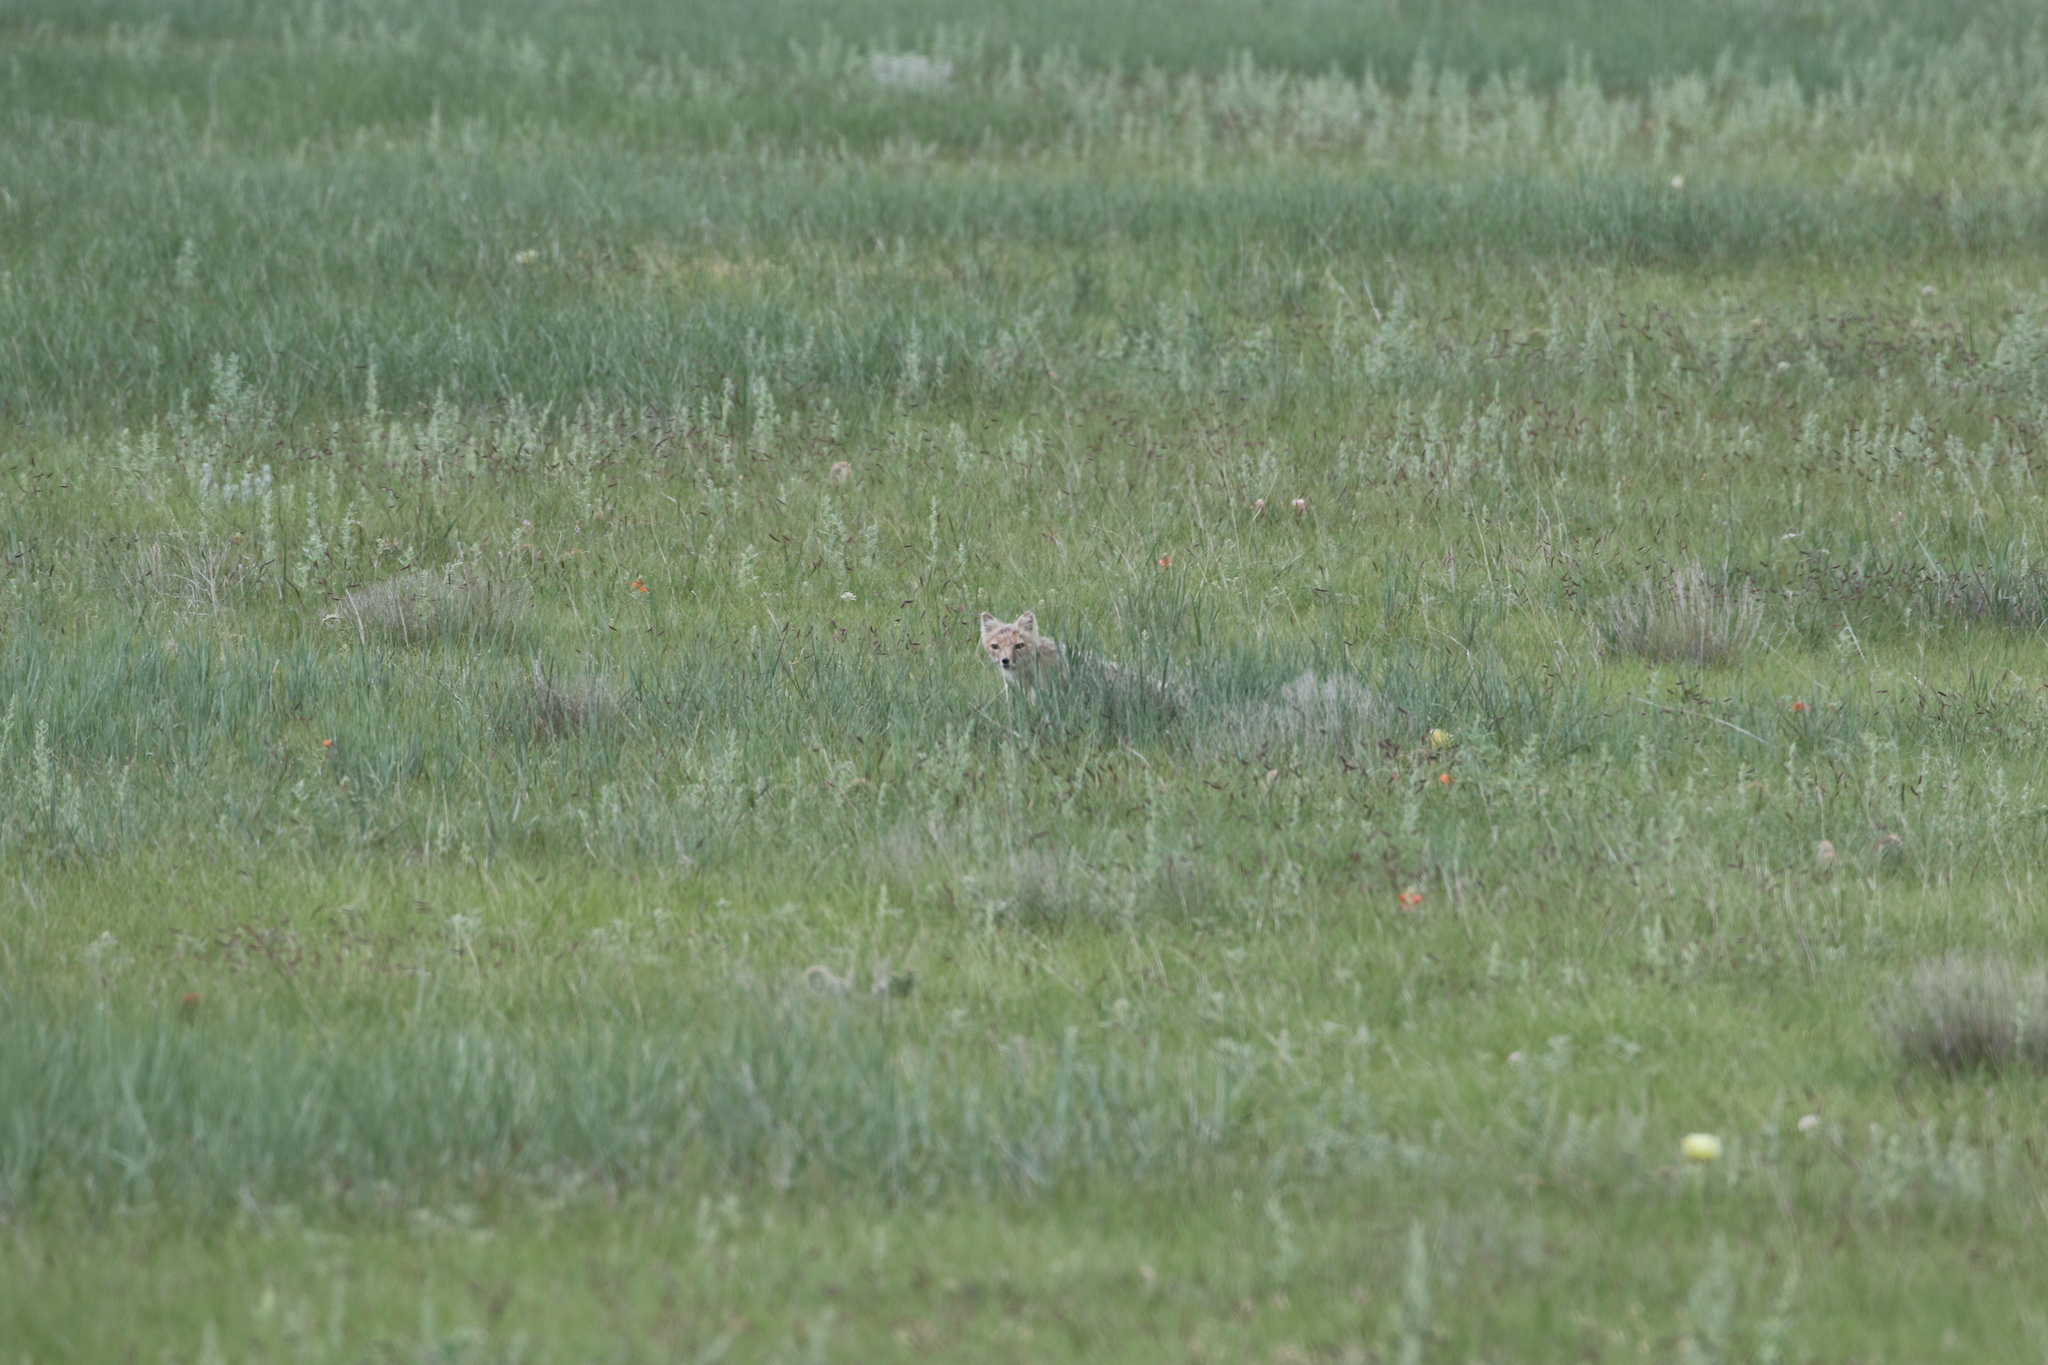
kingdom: Animalia
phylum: Chordata
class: Mammalia
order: Carnivora
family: Canidae
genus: Vulpes
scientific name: Vulpes velox
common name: Swift fox
